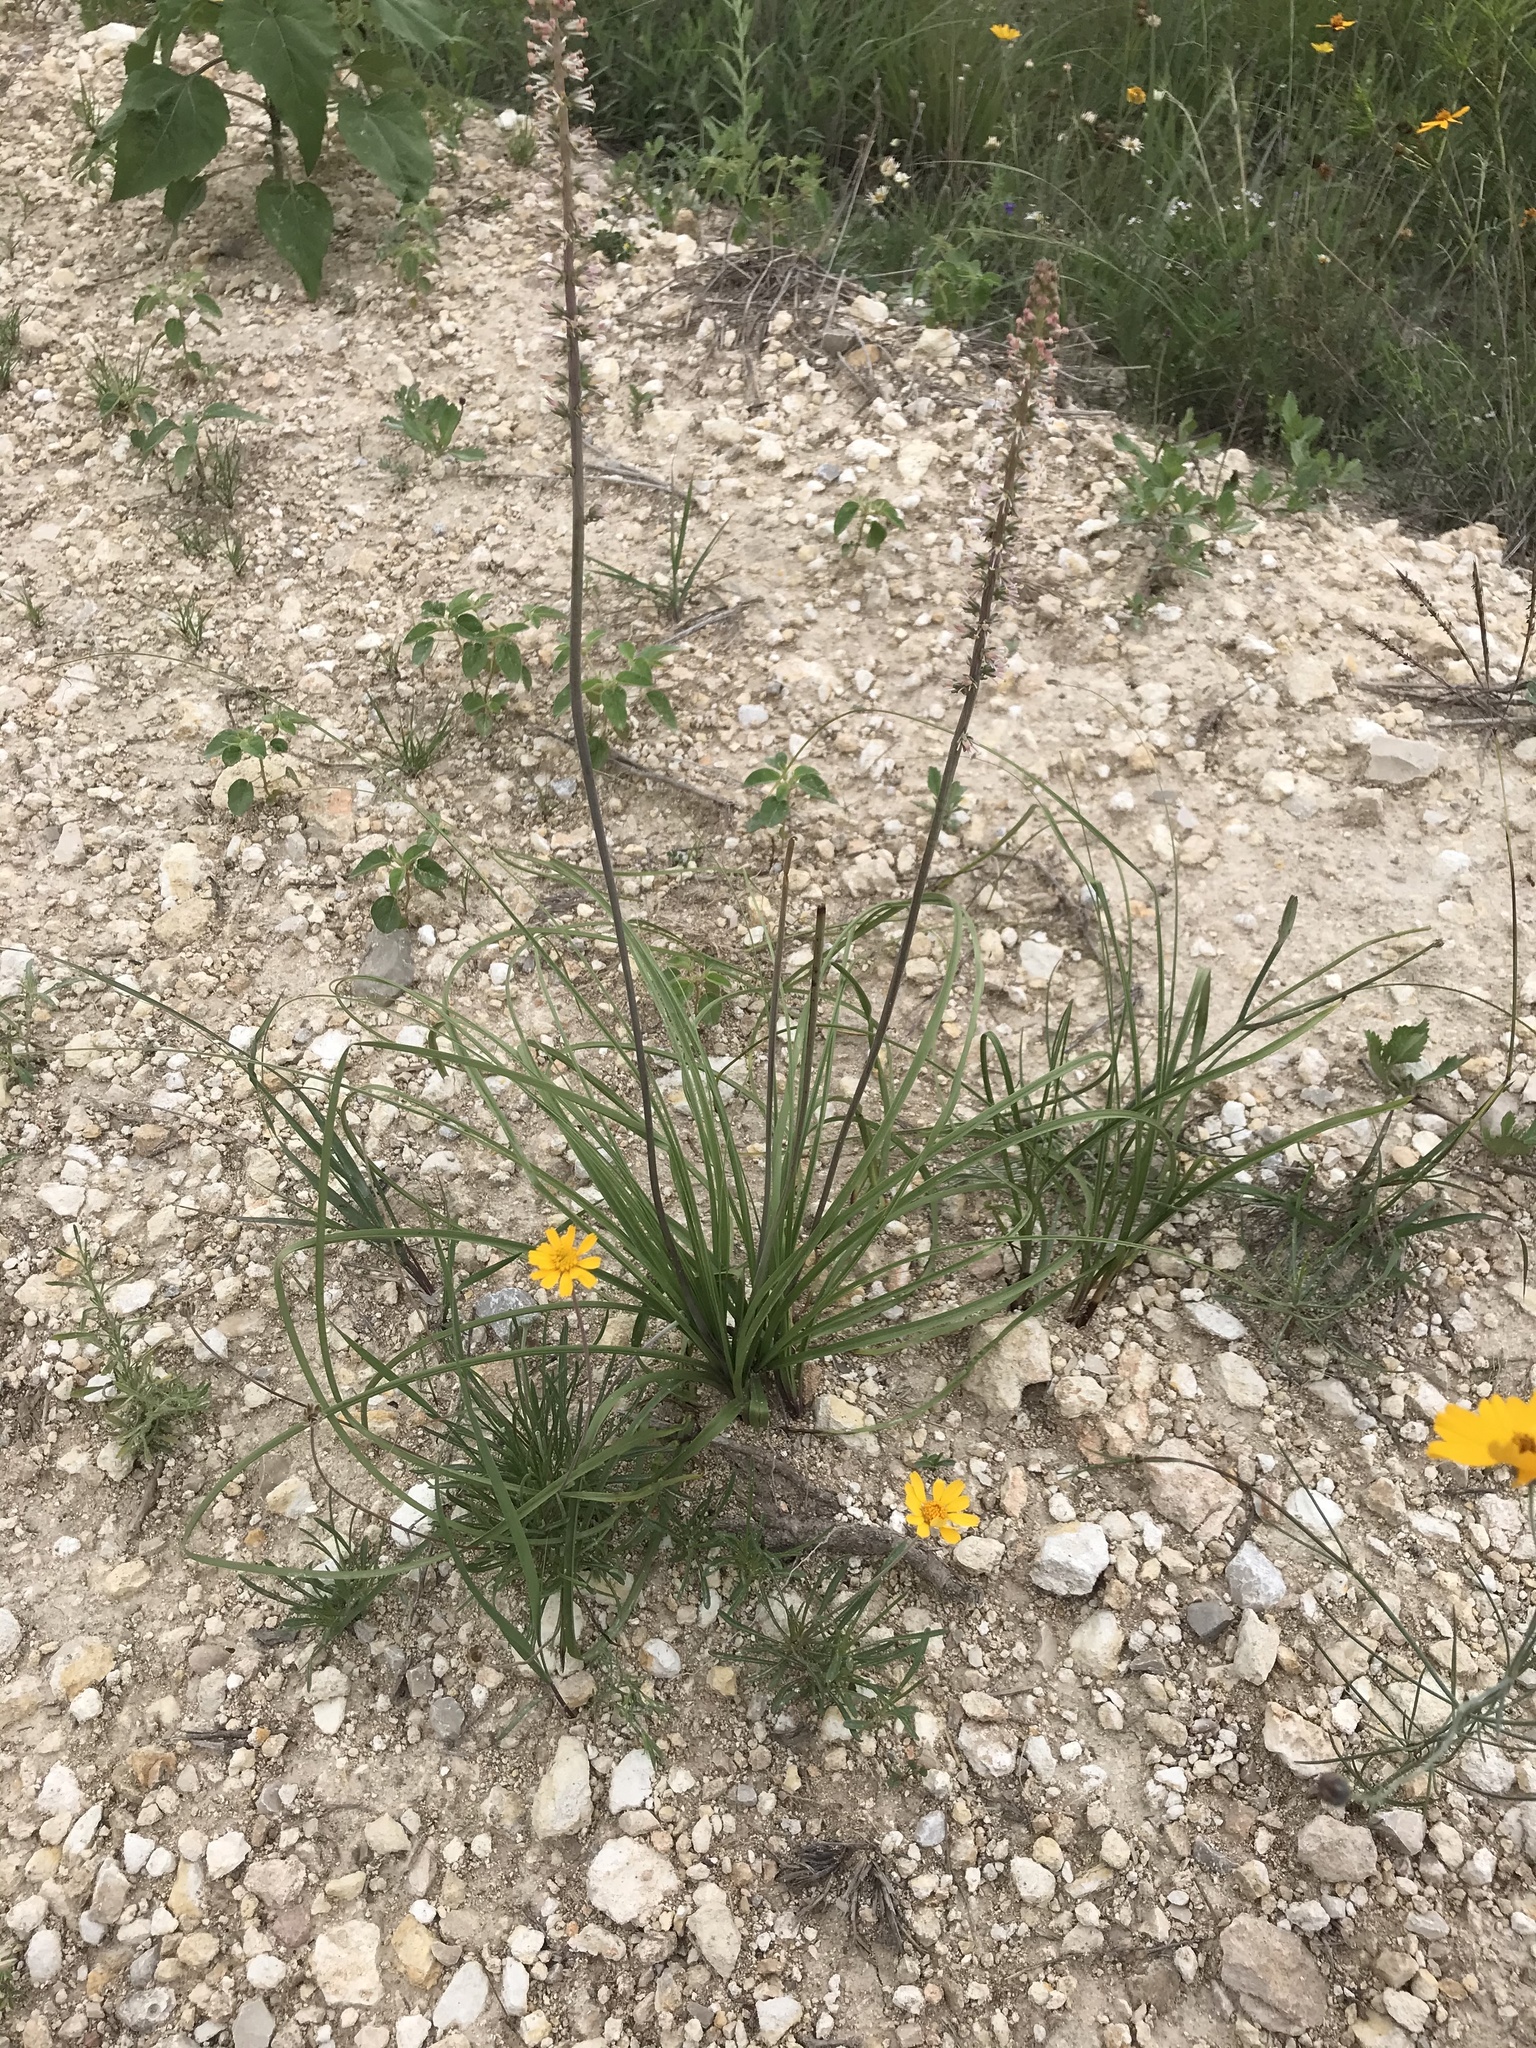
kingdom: Plantae
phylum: Tracheophyta
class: Liliopsida
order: Liliales
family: Melanthiaceae
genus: Schoenocaulon
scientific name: Schoenocaulon texanum
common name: Texas feather-shank
